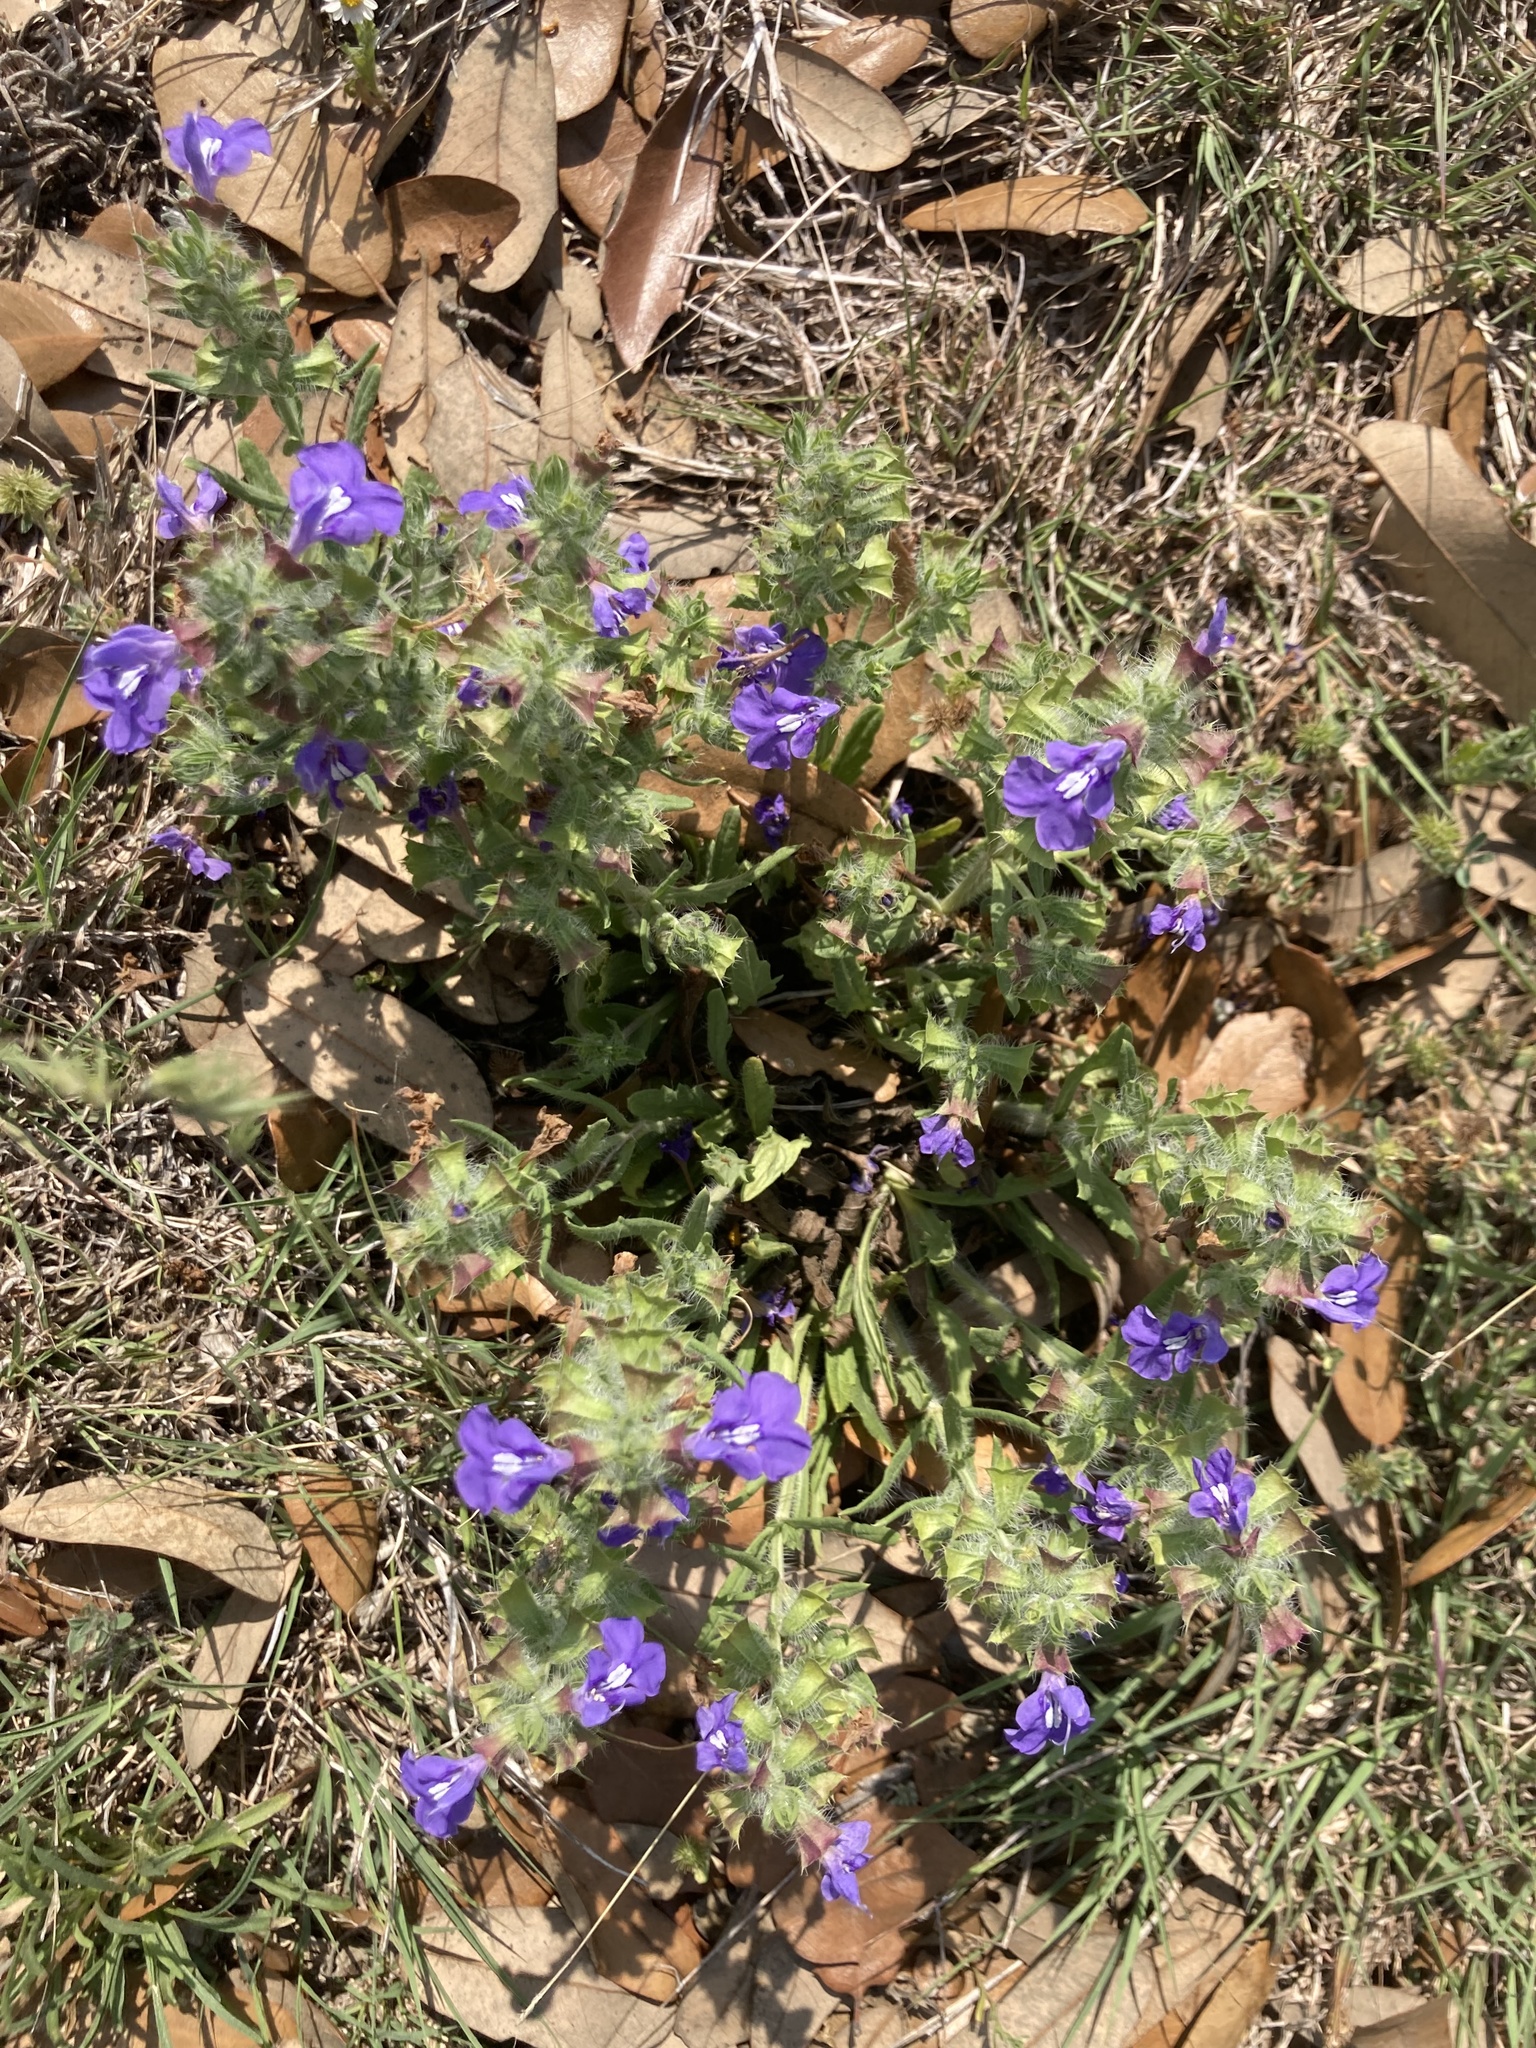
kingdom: Plantae
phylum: Tracheophyta
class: Magnoliopsida
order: Lamiales
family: Lamiaceae
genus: Scutellaria
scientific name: Scutellaria wrightii
